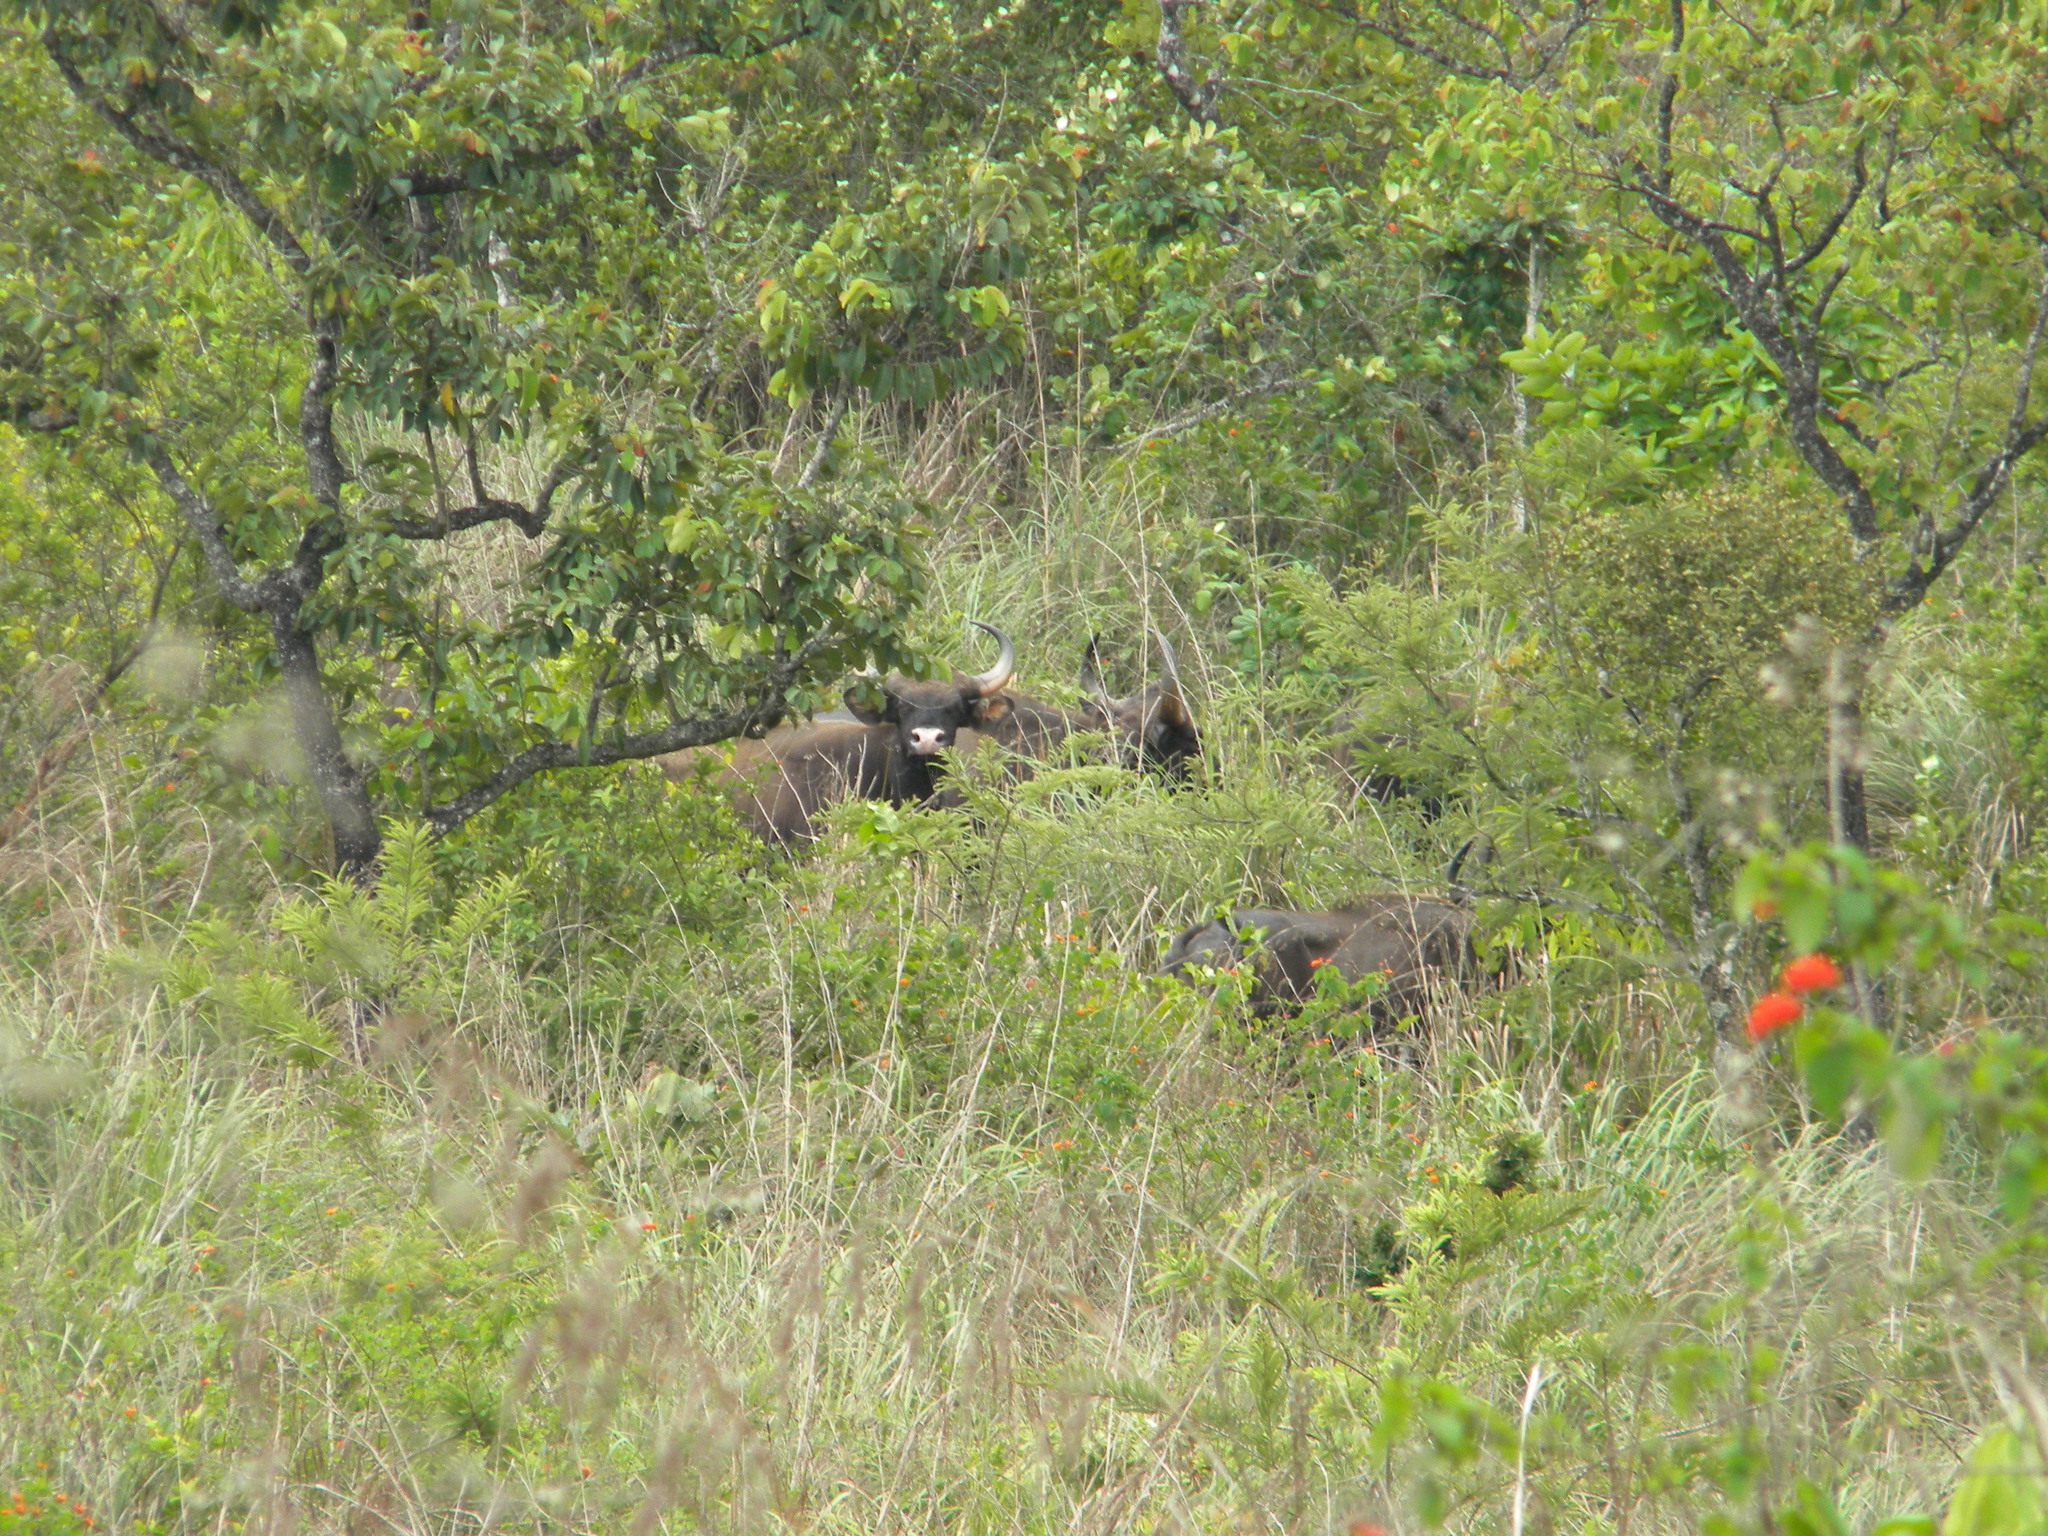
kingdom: Animalia
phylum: Chordata
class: Mammalia
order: Artiodactyla
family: Bovidae
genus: Bos
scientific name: Bos frontalis
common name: Gaur
